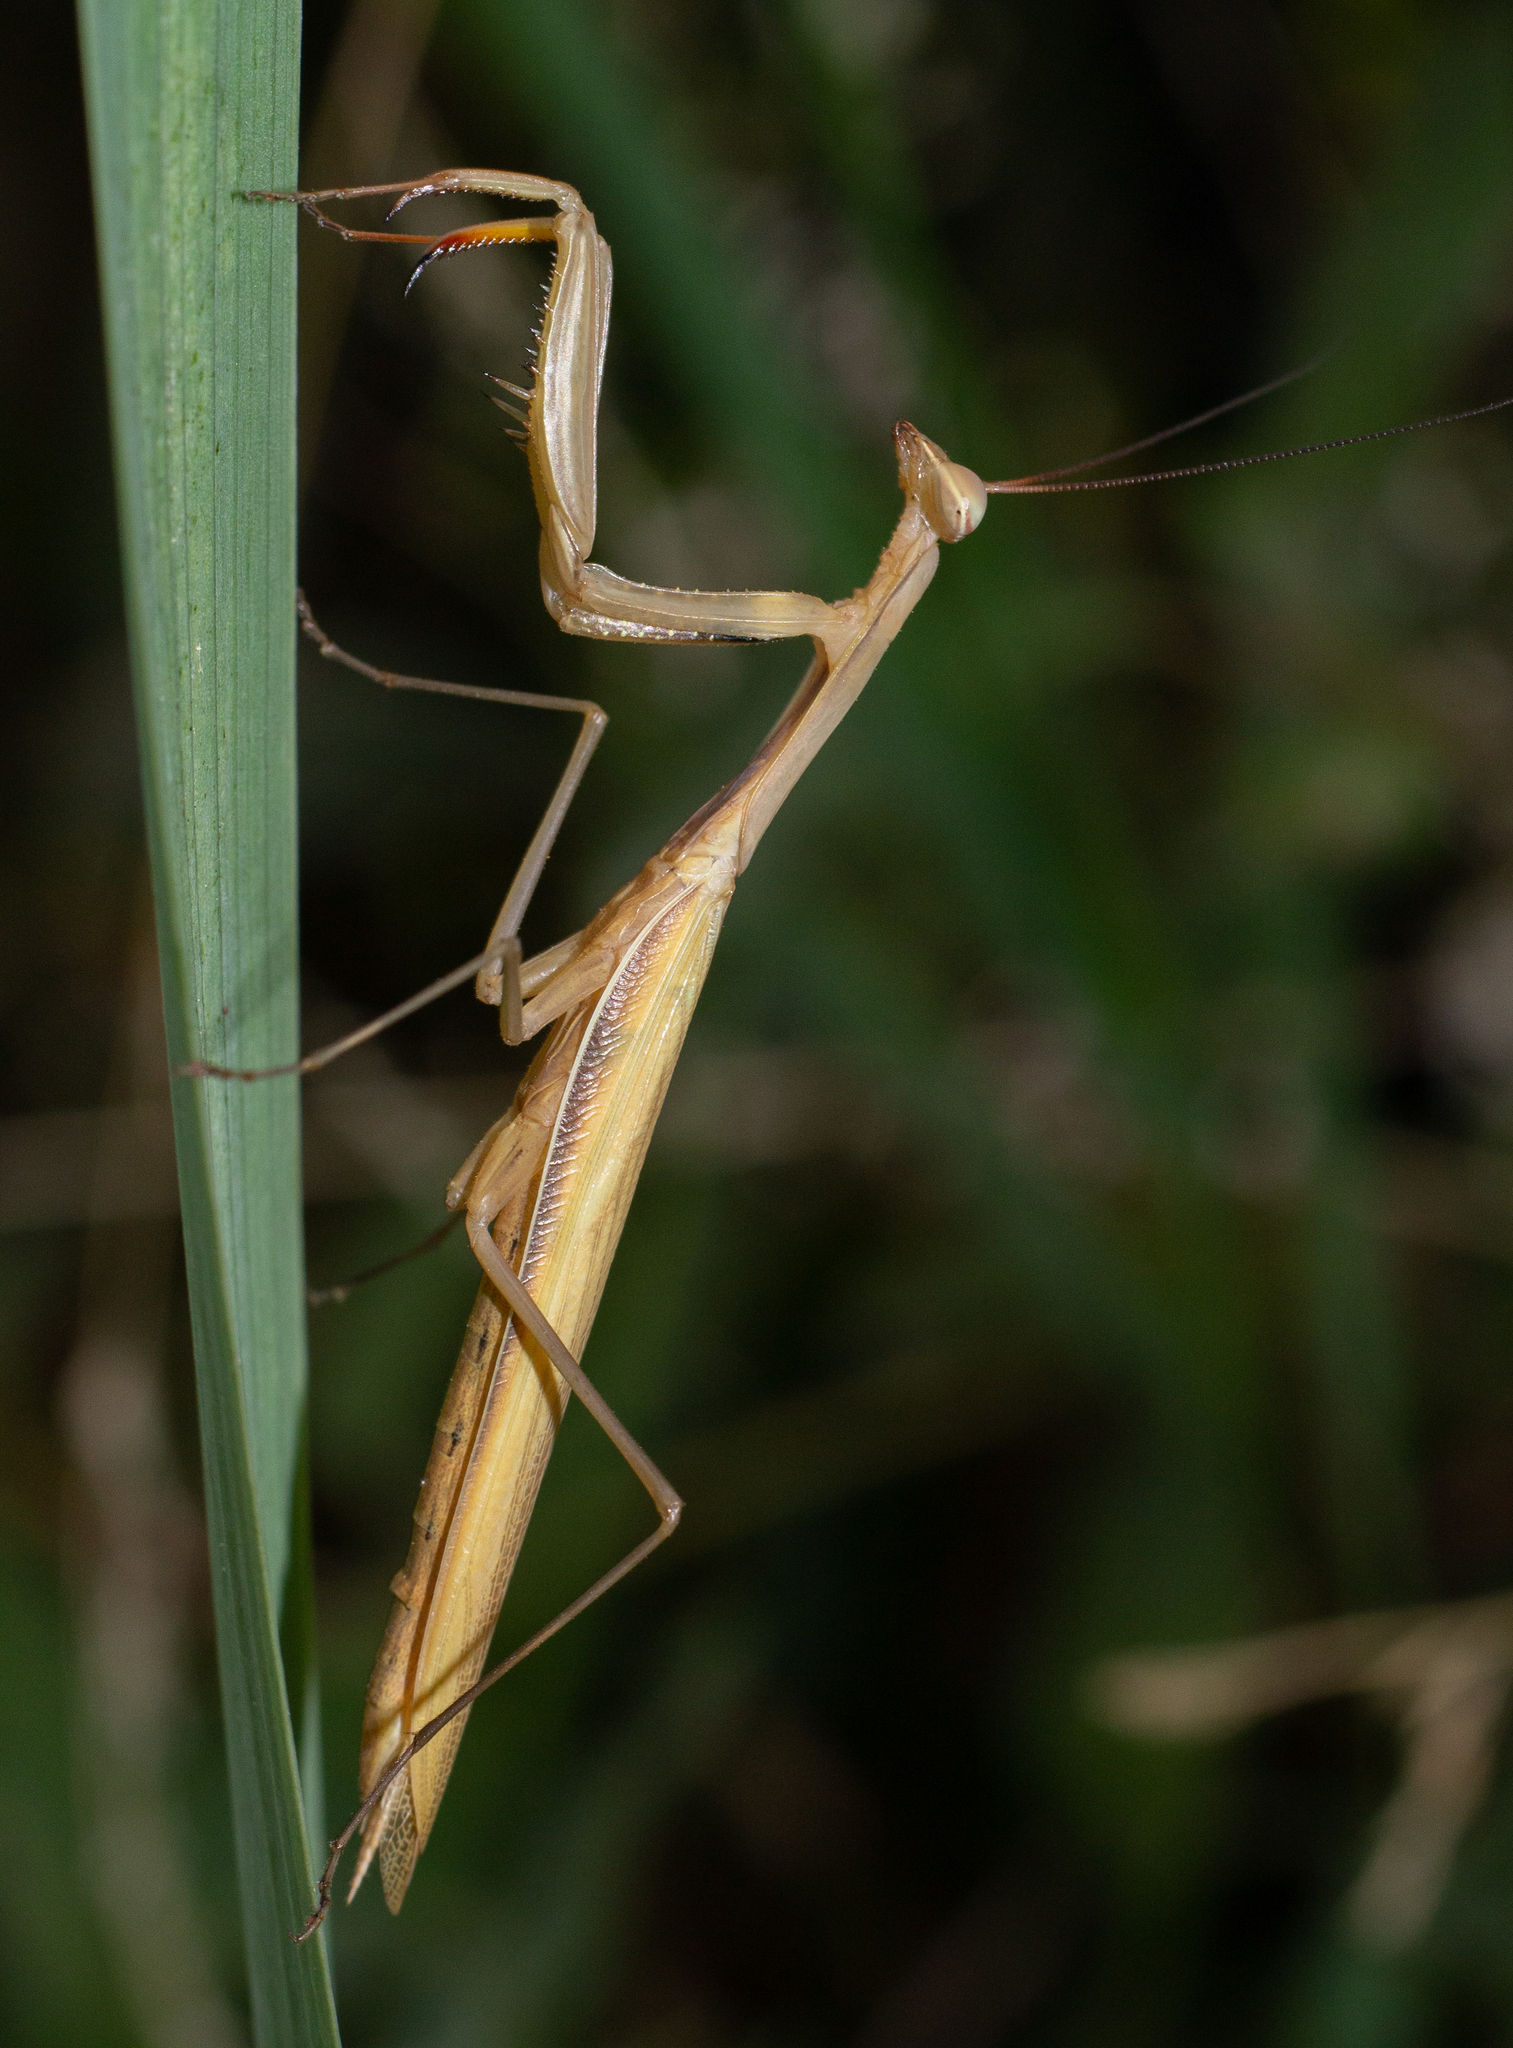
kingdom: Animalia
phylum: Arthropoda
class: Insecta
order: Mantodea
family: Mantidae
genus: Mantis
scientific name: Mantis religiosa
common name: Praying mantis
